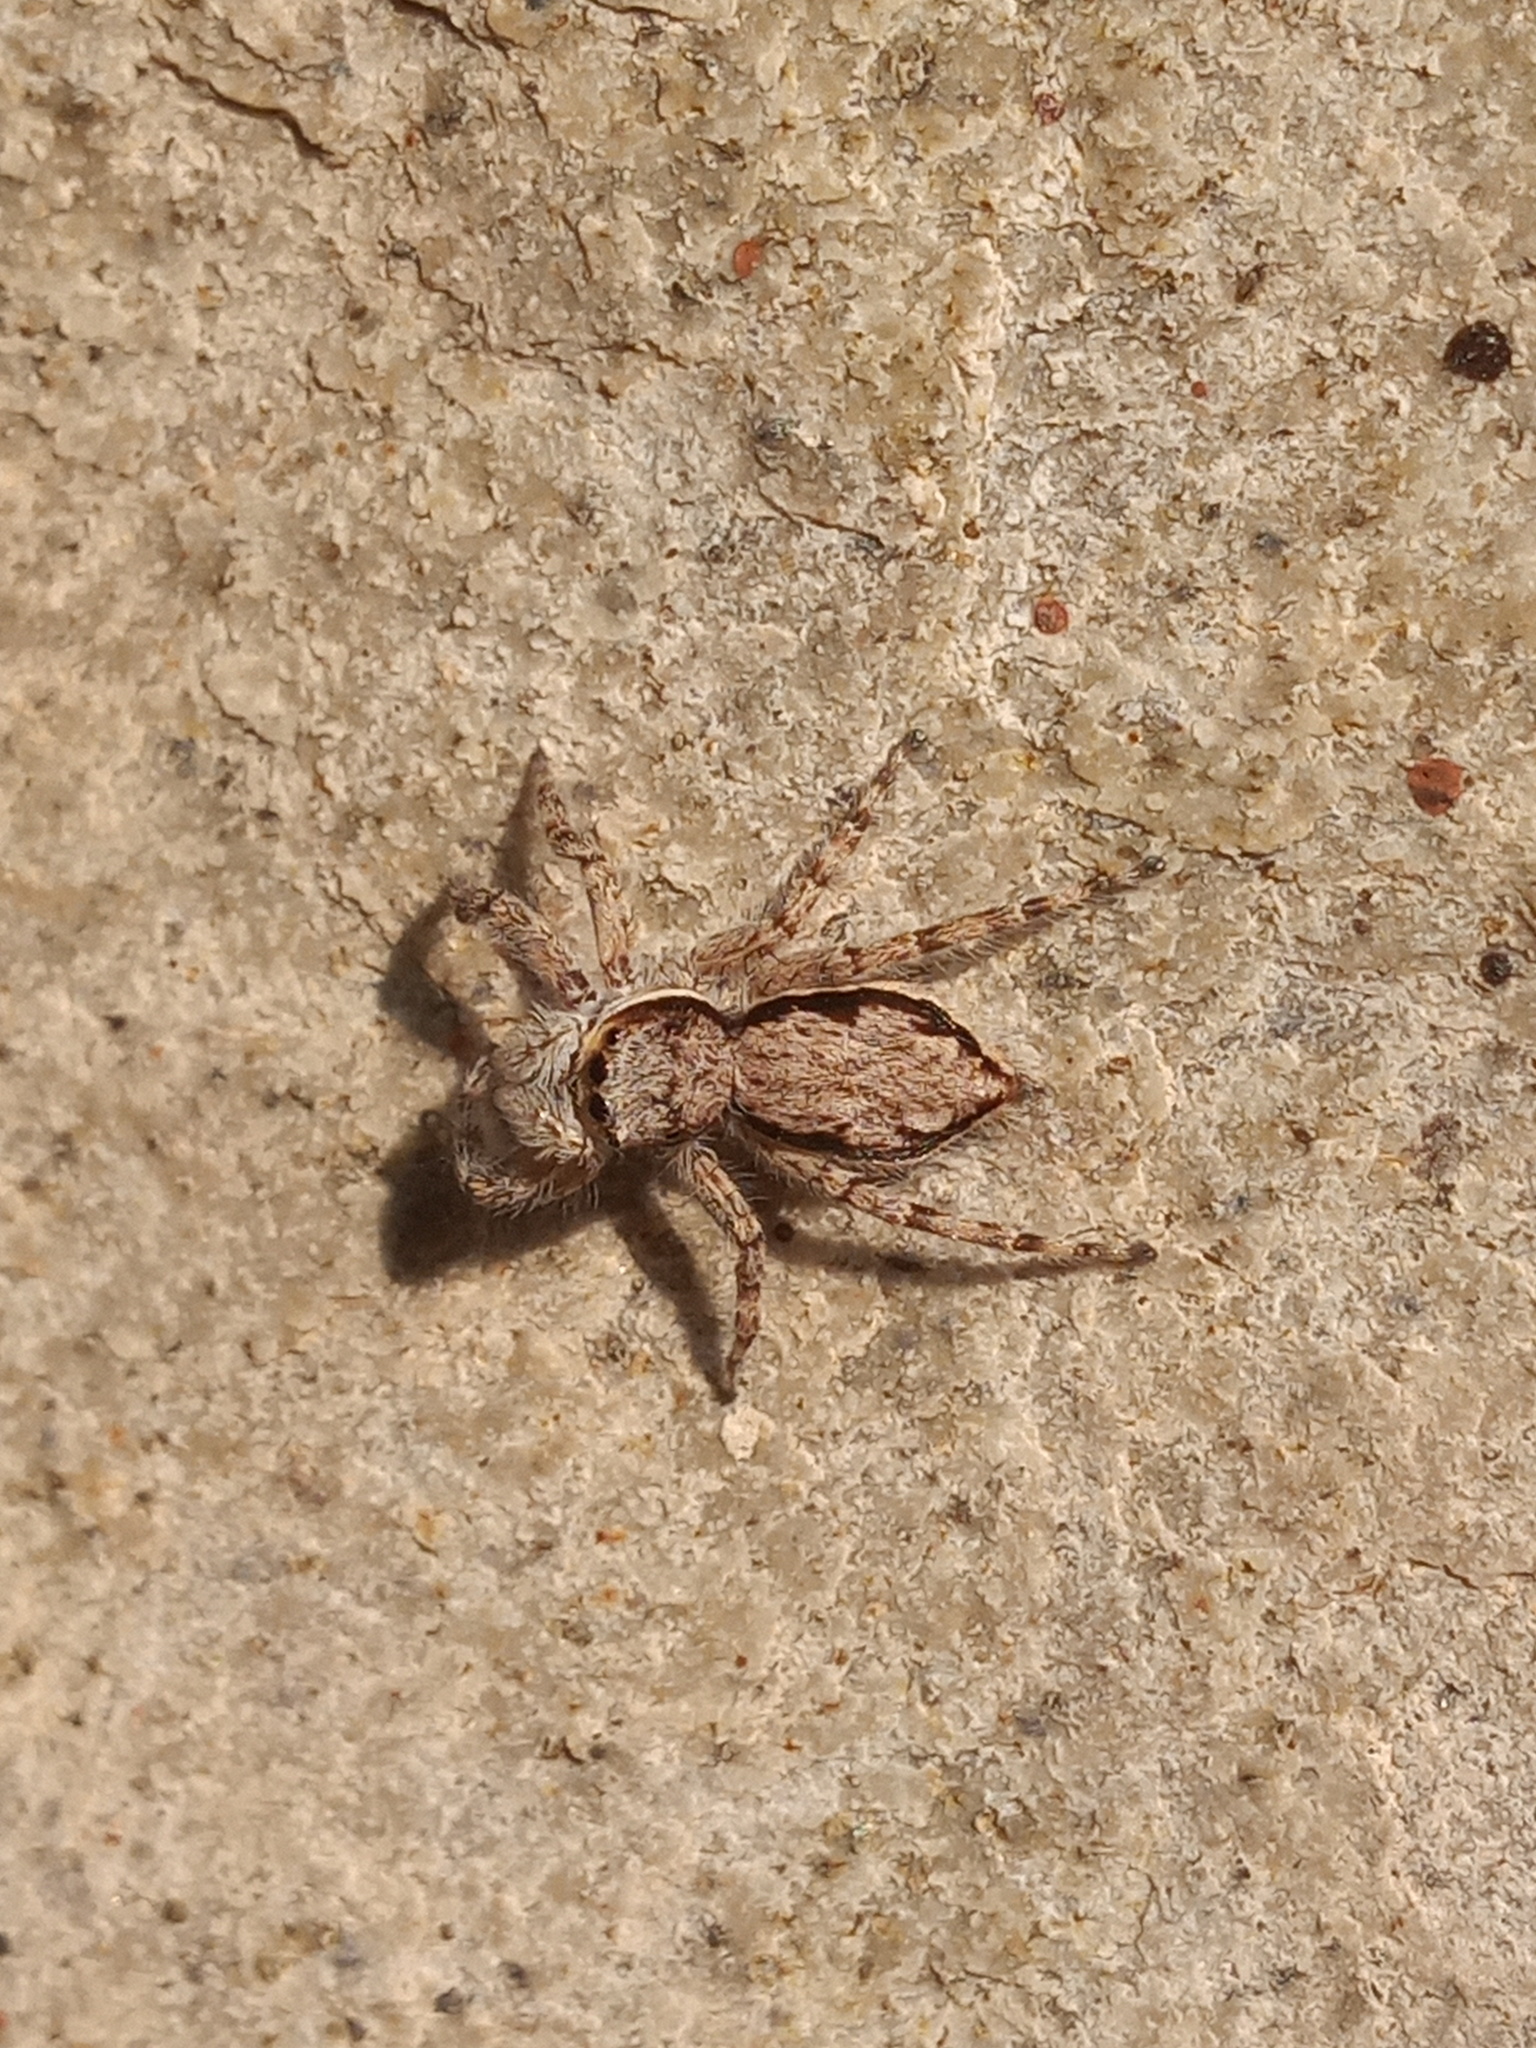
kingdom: Animalia
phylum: Arthropoda
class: Arachnida
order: Araneae
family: Salticidae
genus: Menemerus
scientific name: Menemerus bivittatus
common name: Gray wall jumper
